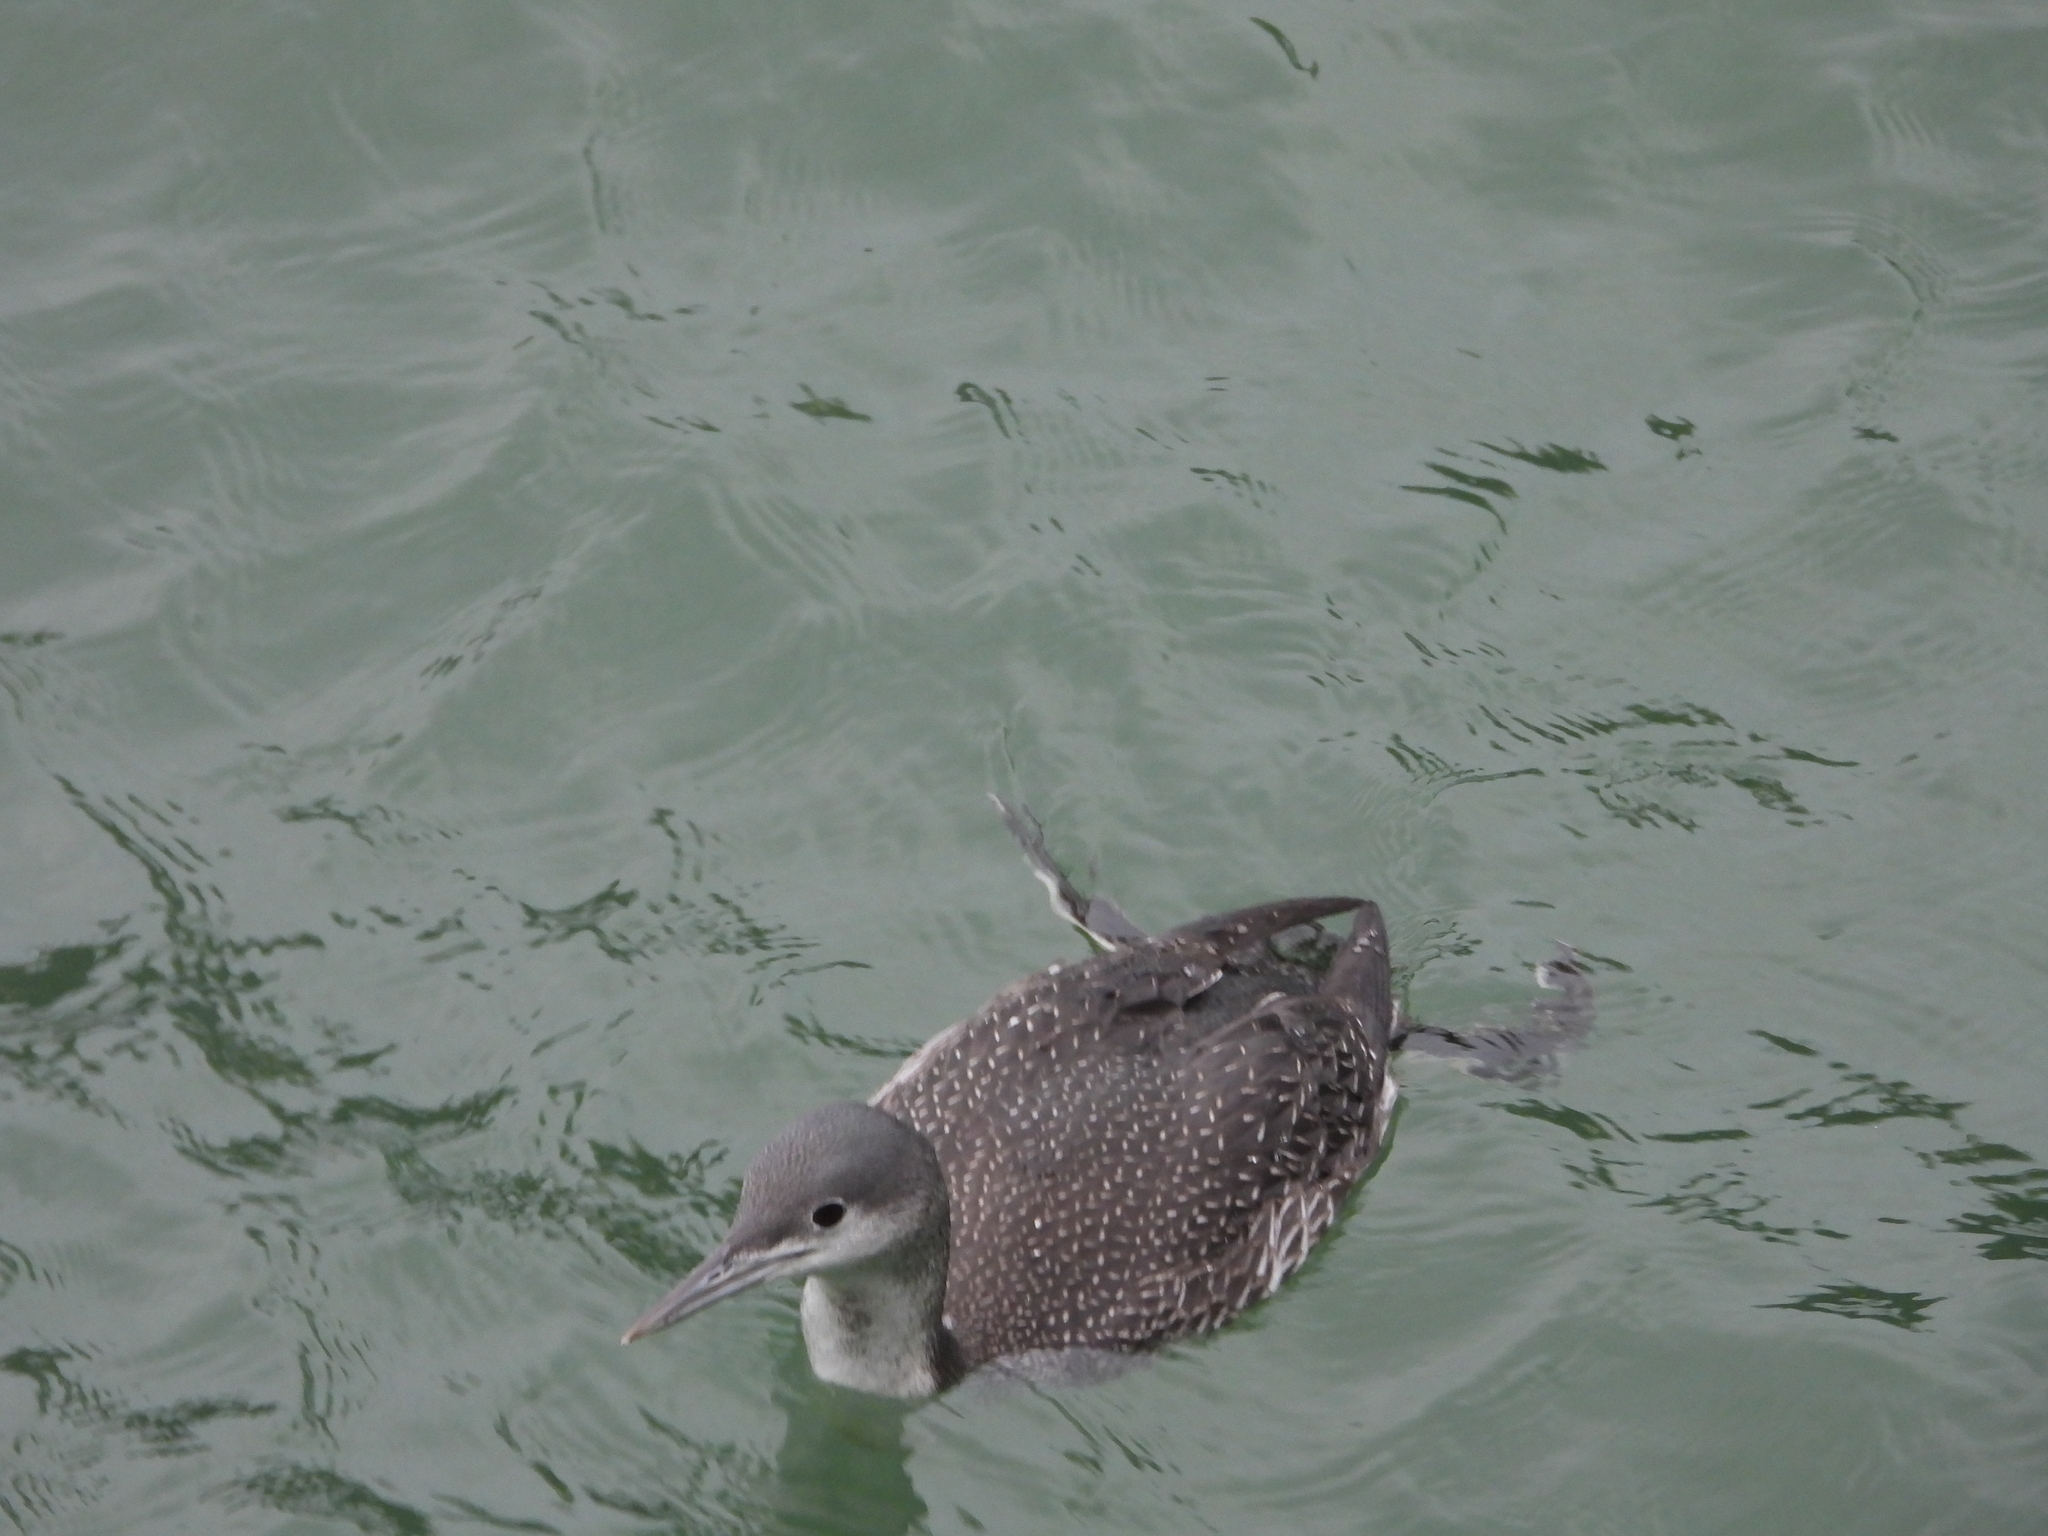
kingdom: Animalia
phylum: Chordata
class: Aves
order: Gaviiformes
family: Gaviidae
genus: Gavia
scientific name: Gavia stellata
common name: Red-throated loon
